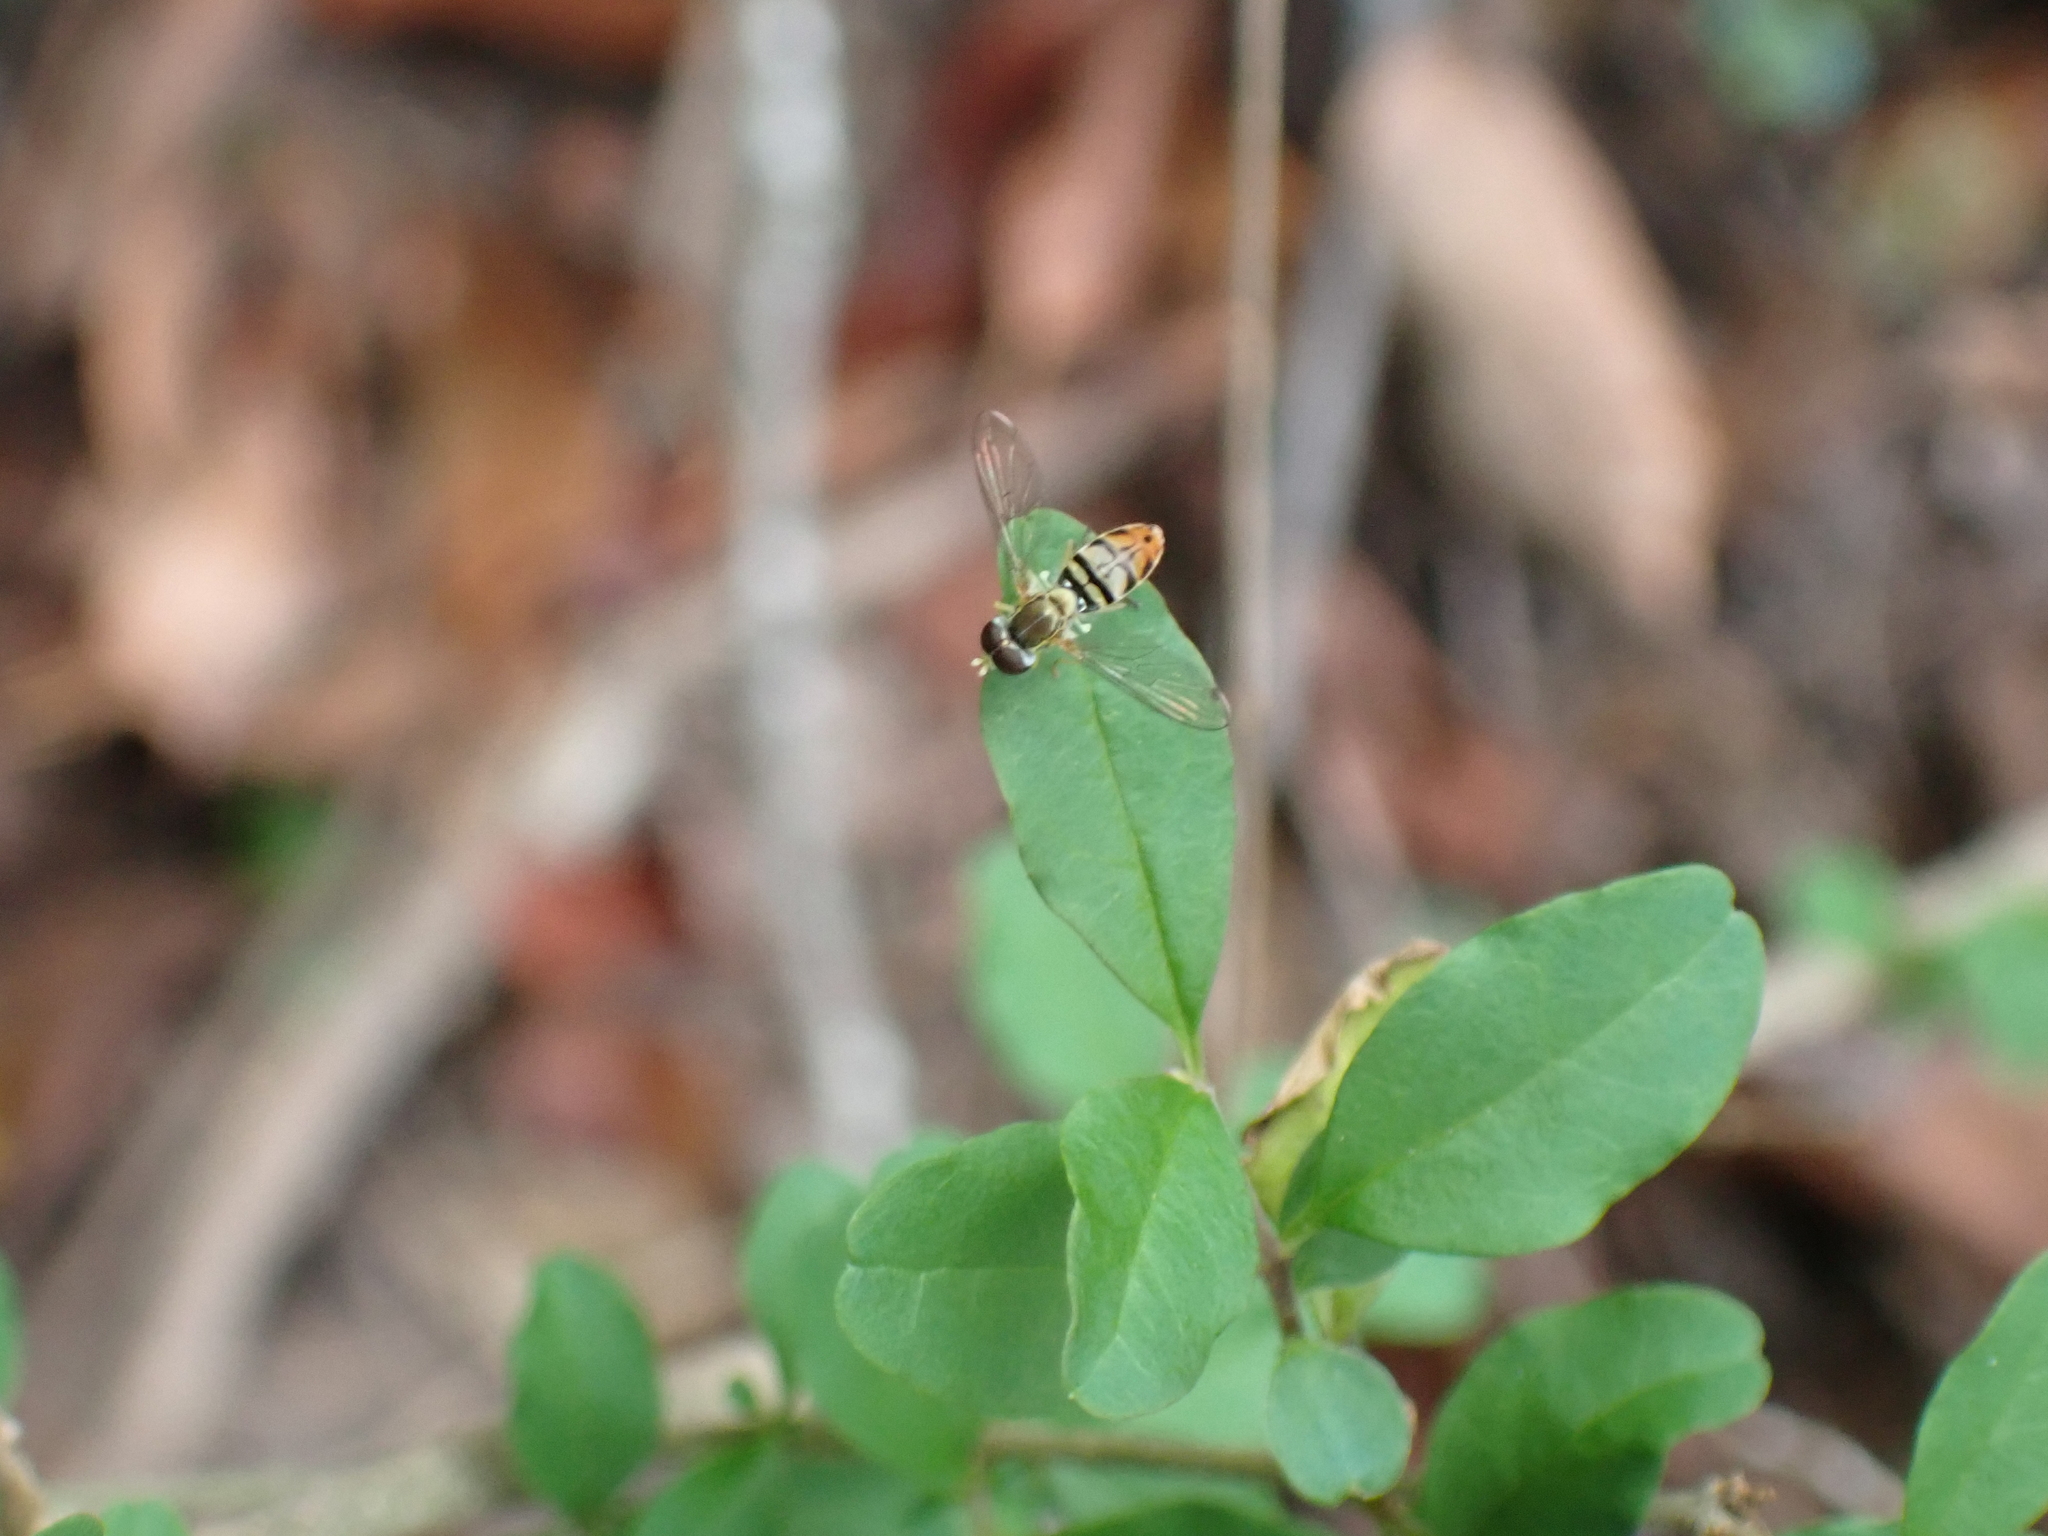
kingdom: Animalia
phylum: Arthropoda
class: Insecta
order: Diptera
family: Syrphidae
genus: Toxomerus
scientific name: Toxomerus marginatus
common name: Syrphid fly
